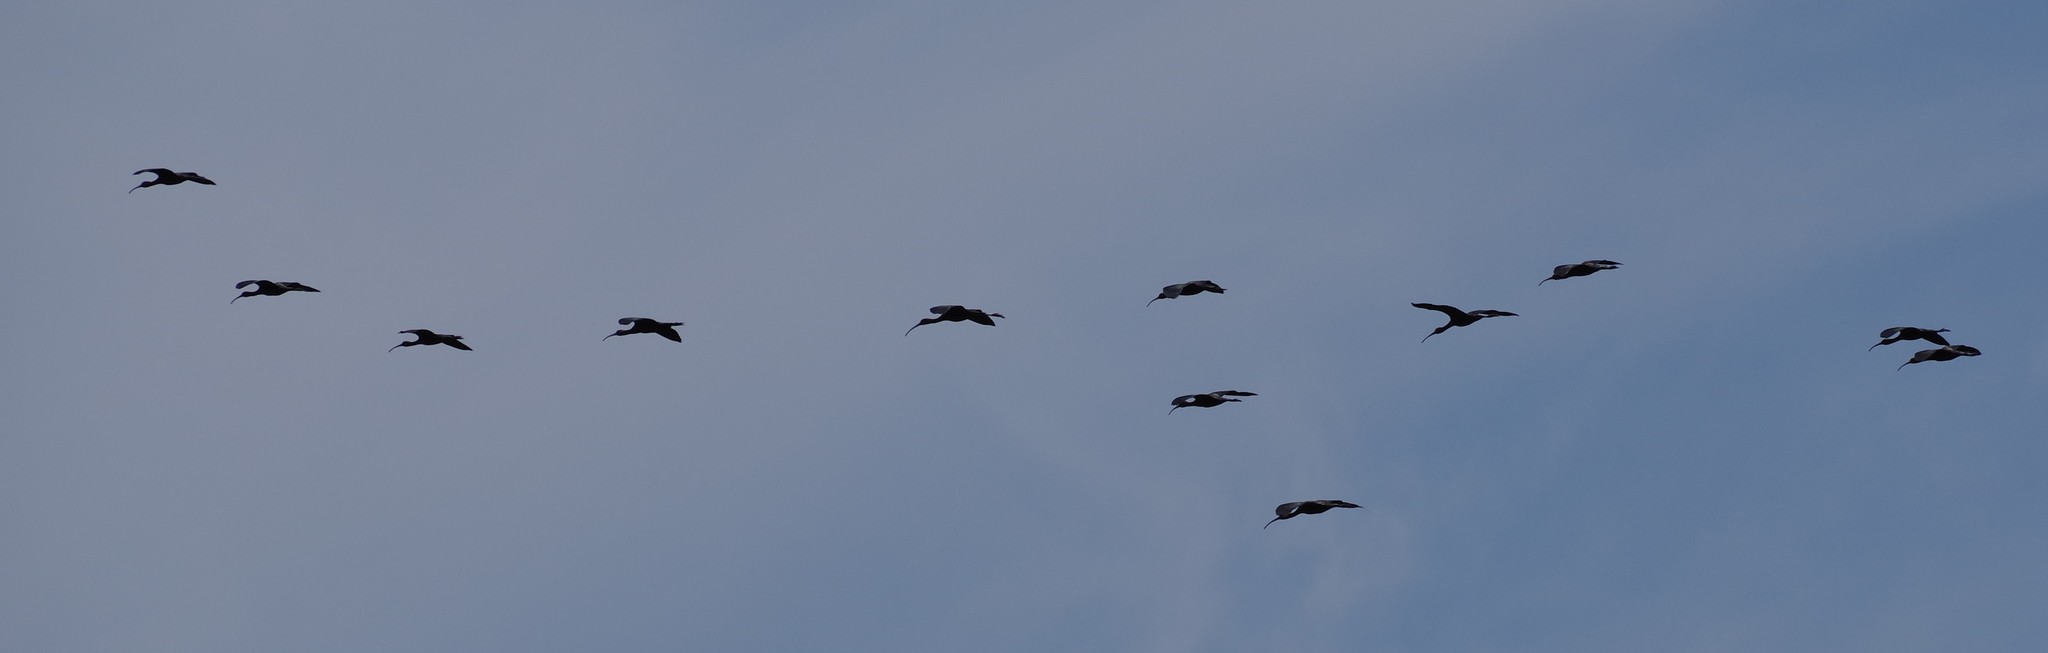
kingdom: Animalia
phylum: Chordata
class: Aves
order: Pelecaniformes
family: Threskiornithidae
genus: Plegadis
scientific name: Plegadis falcinellus
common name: Glossy ibis
